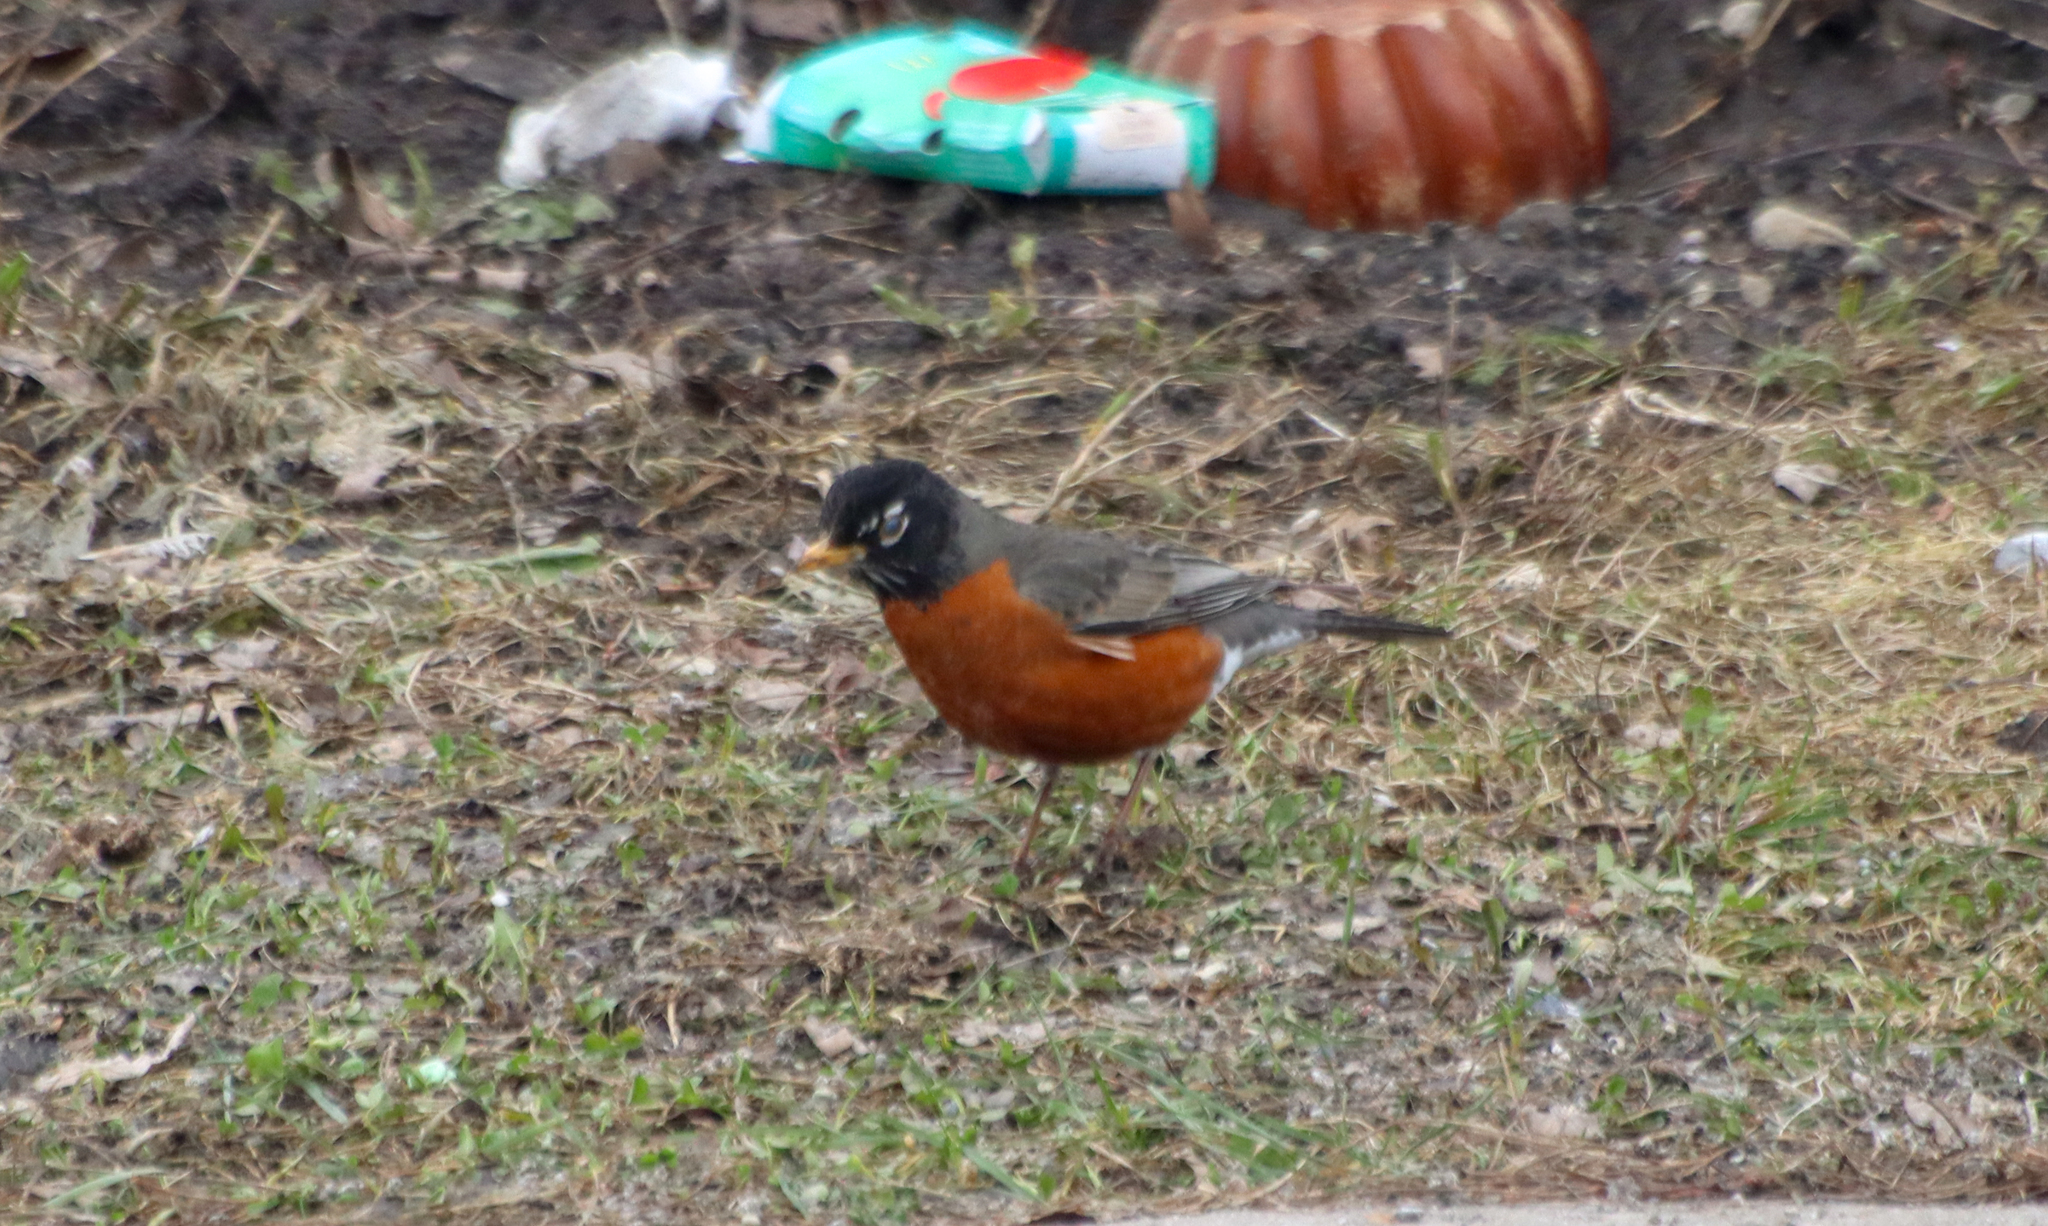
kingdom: Animalia
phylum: Chordata
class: Aves
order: Passeriformes
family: Turdidae
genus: Turdus
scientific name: Turdus migratorius
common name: American robin
